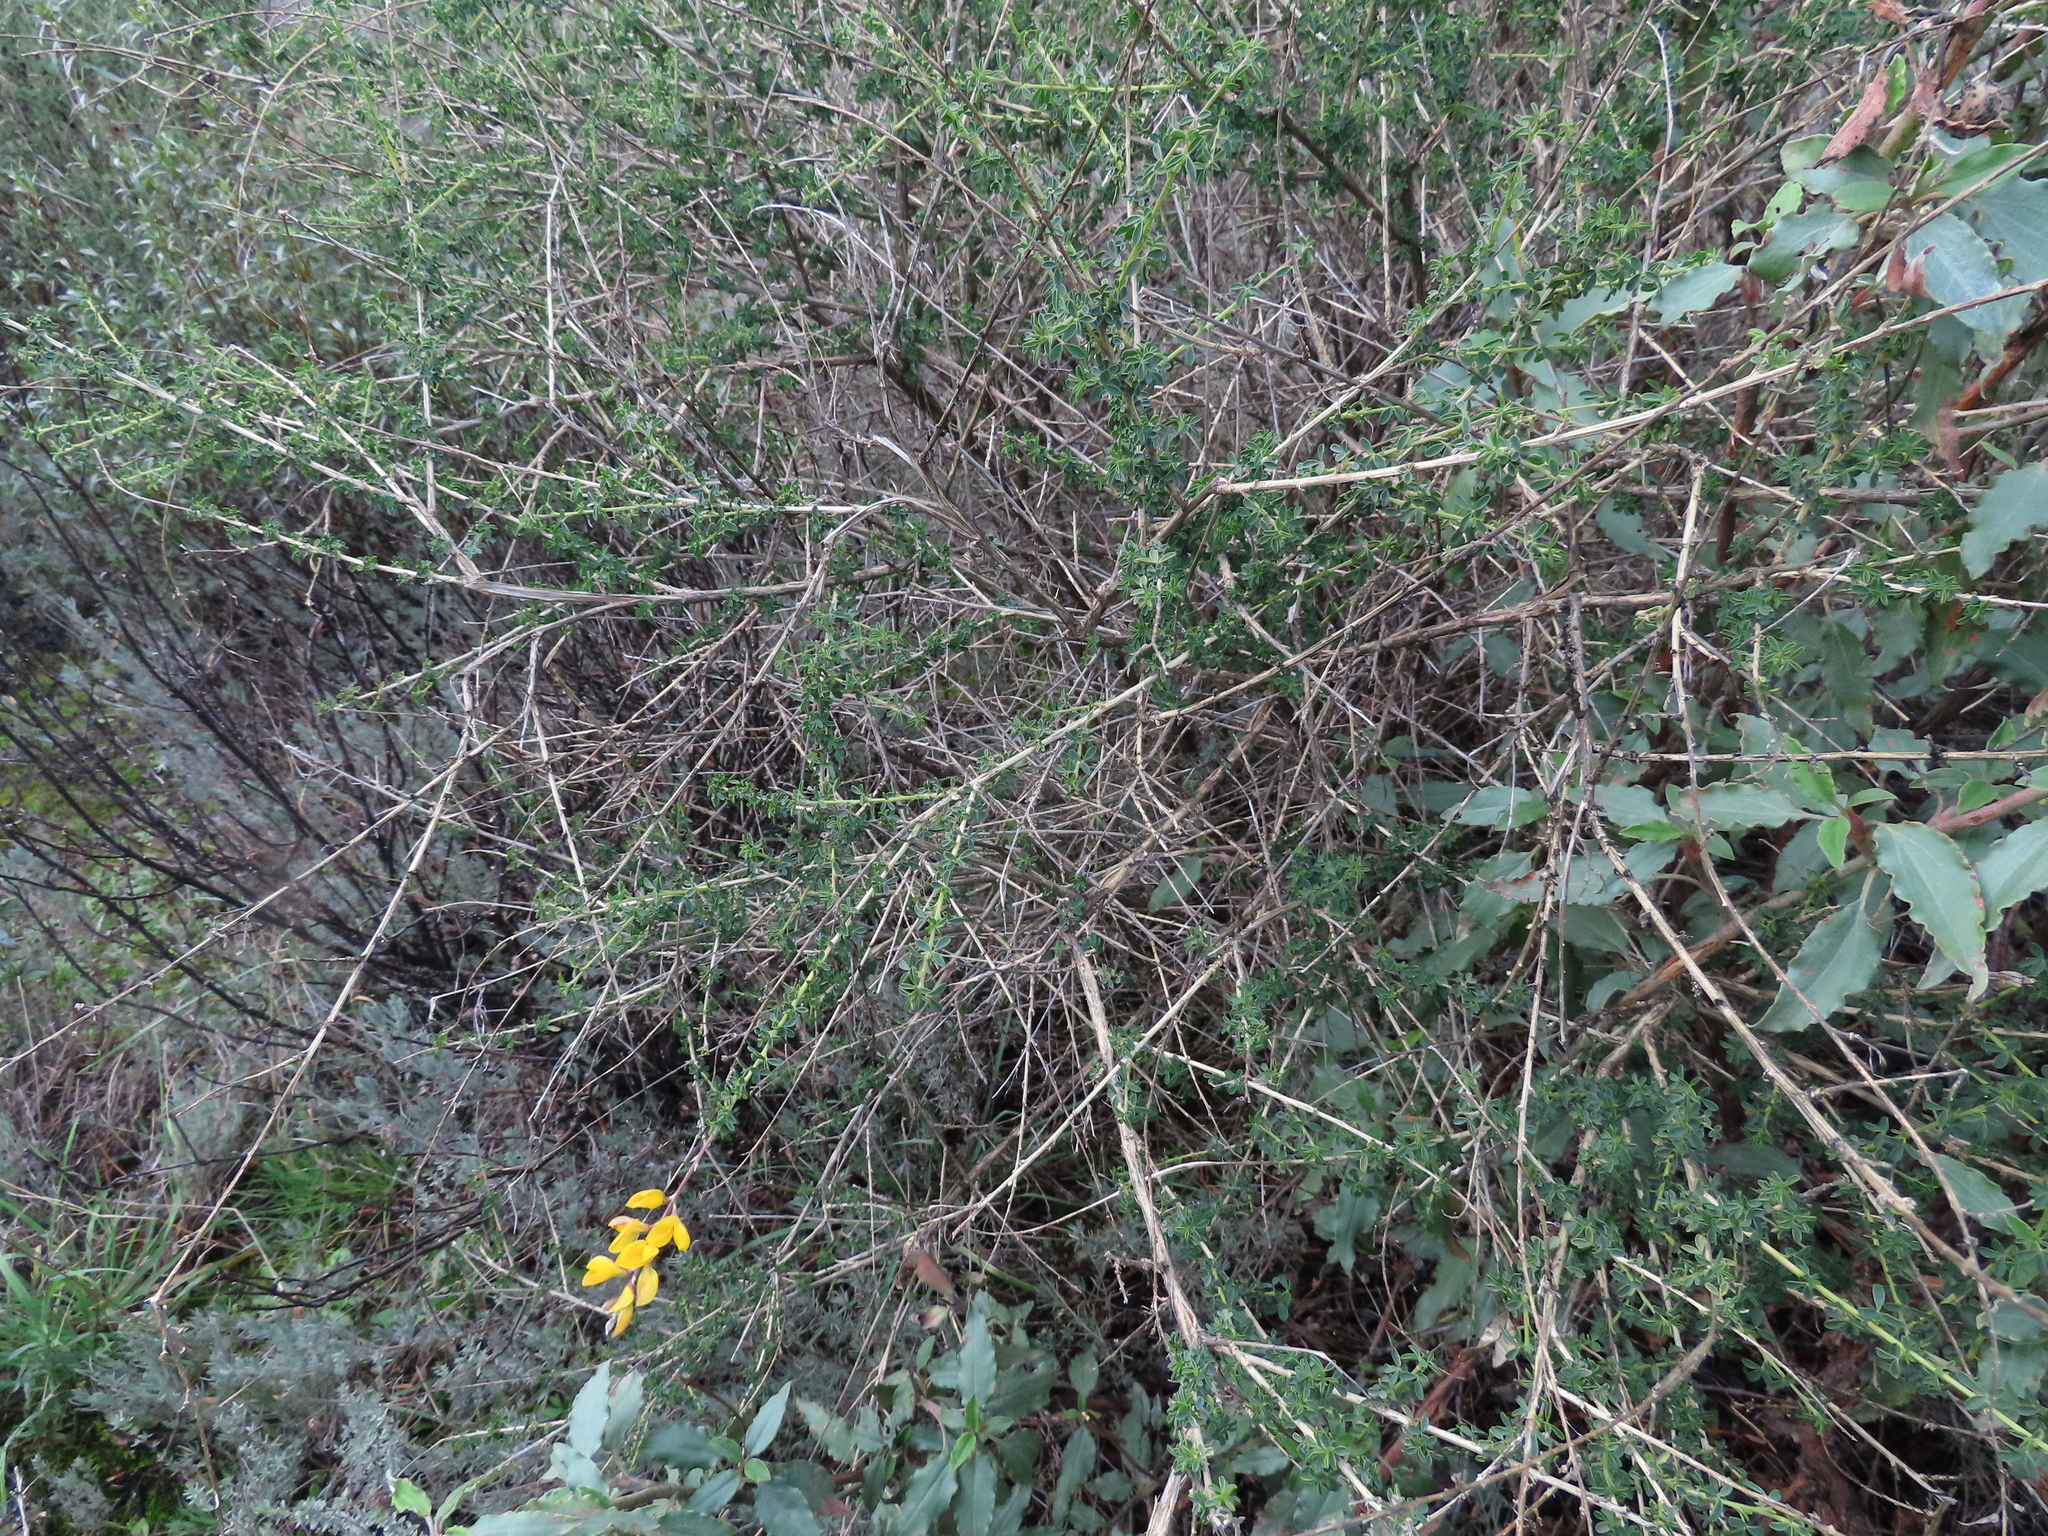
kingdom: Plantae
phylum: Tracheophyta
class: Magnoliopsida
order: Fabales
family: Fabaceae
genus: Adenocarpus
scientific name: Adenocarpus complicatus
